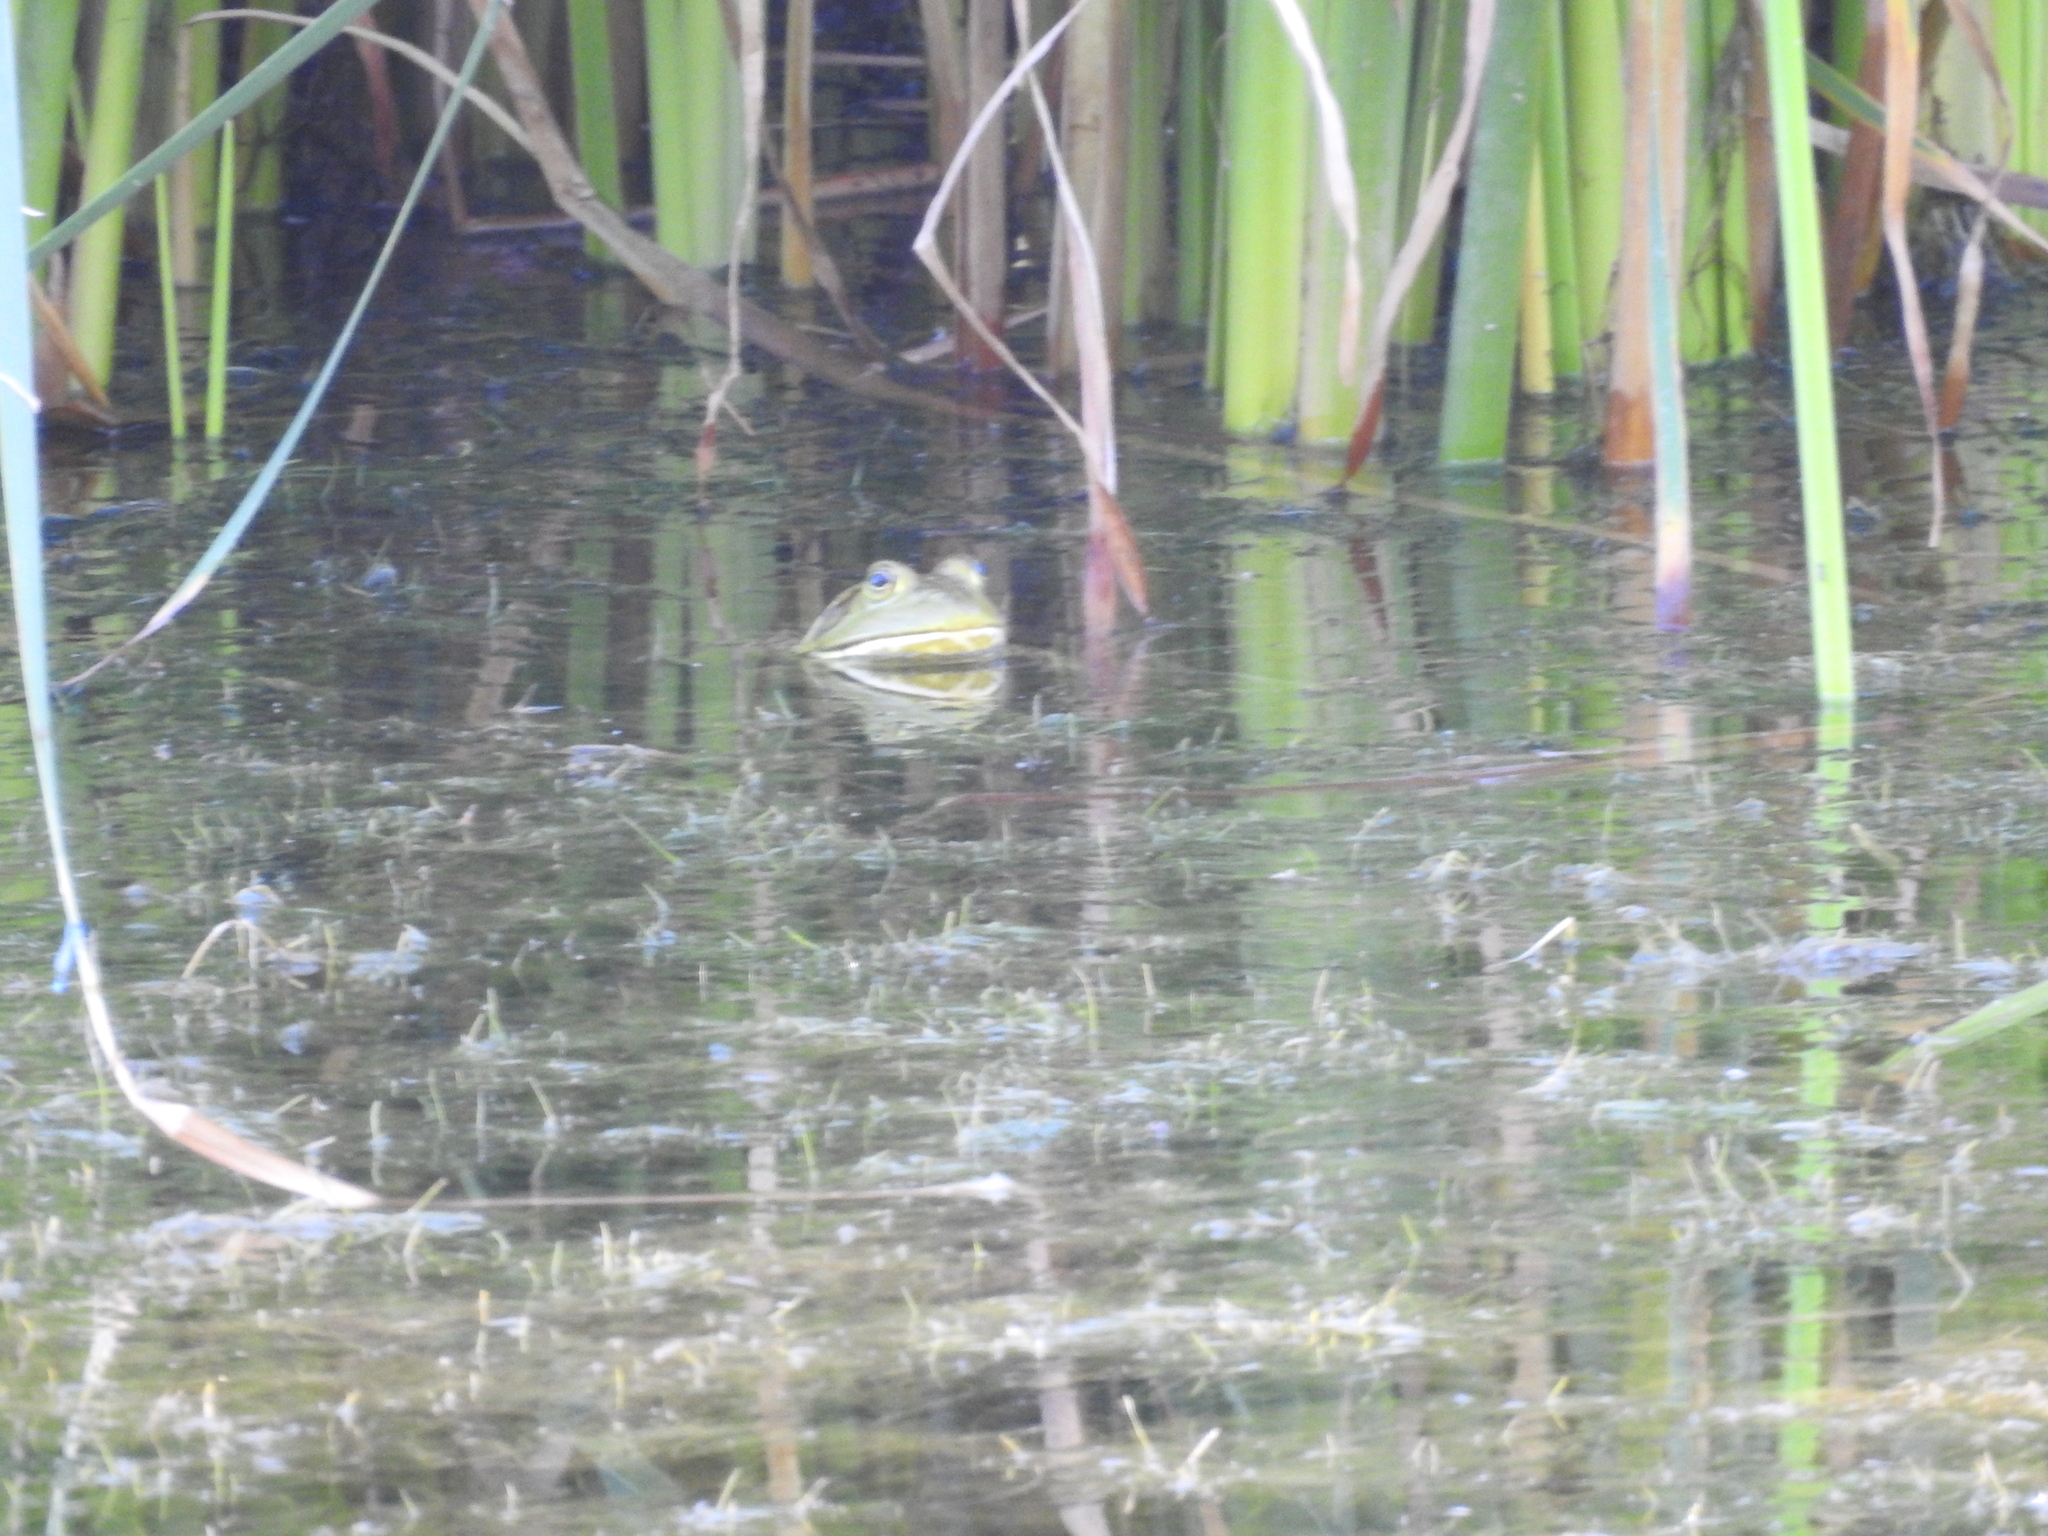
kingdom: Animalia
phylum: Chordata
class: Amphibia
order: Anura
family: Ranidae
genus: Lithobates
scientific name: Lithobates catesbeianus
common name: American bullfrog
